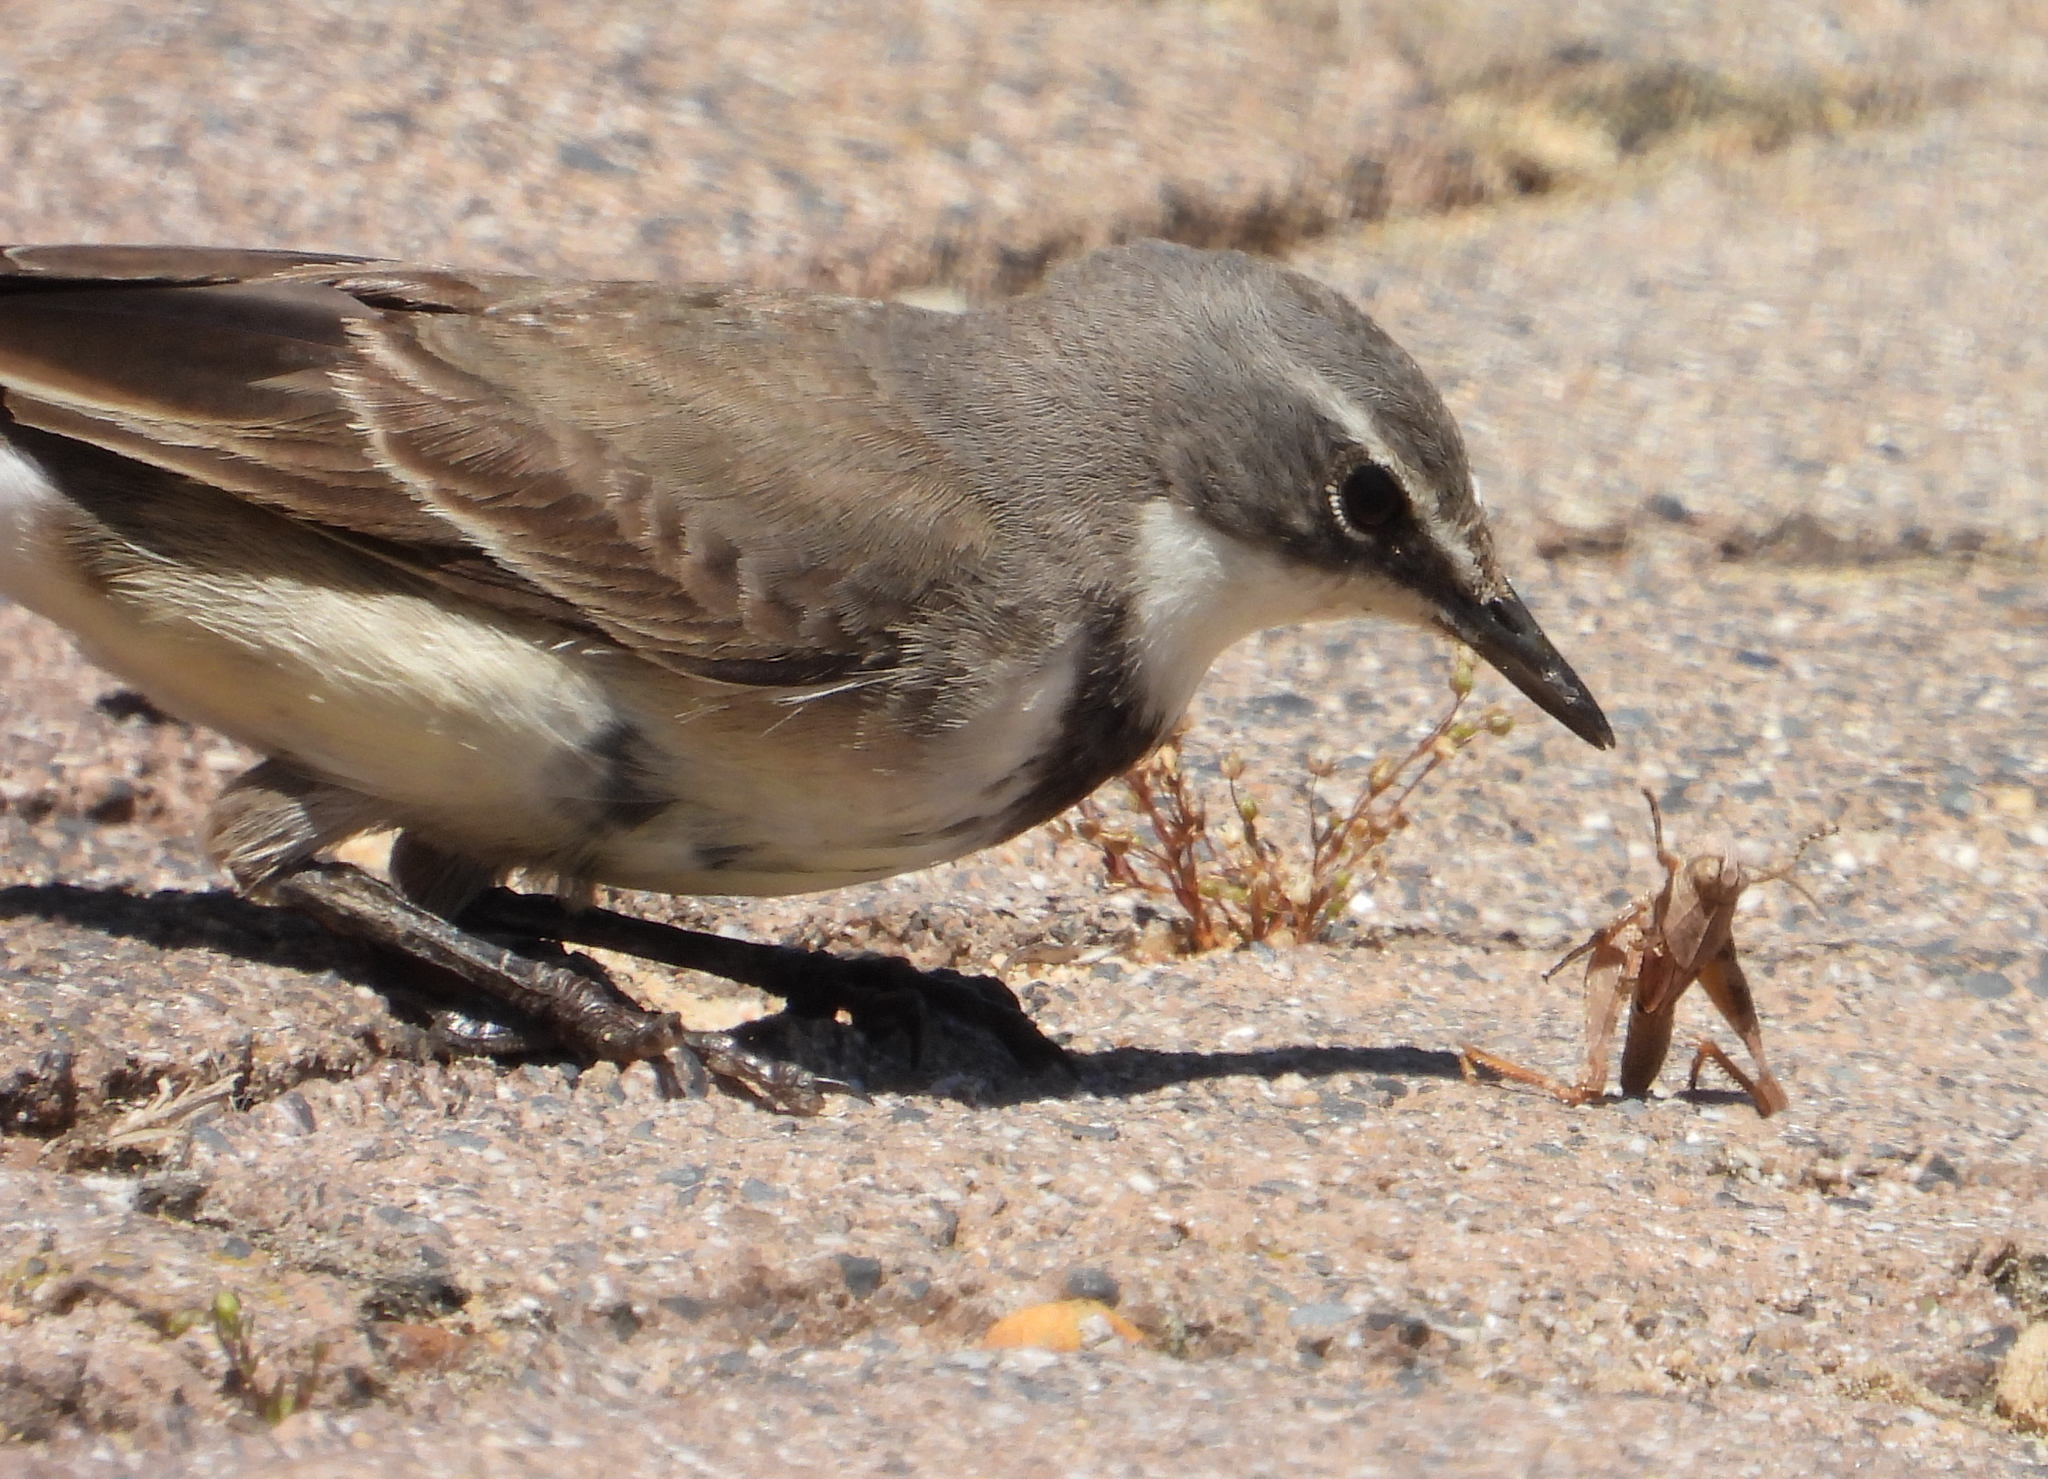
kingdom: Animalia
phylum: Chordata
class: Aves
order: Passeriformes
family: Motacillidae
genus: Motacilla
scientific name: Motacilla capensis
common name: Cape wagtail
